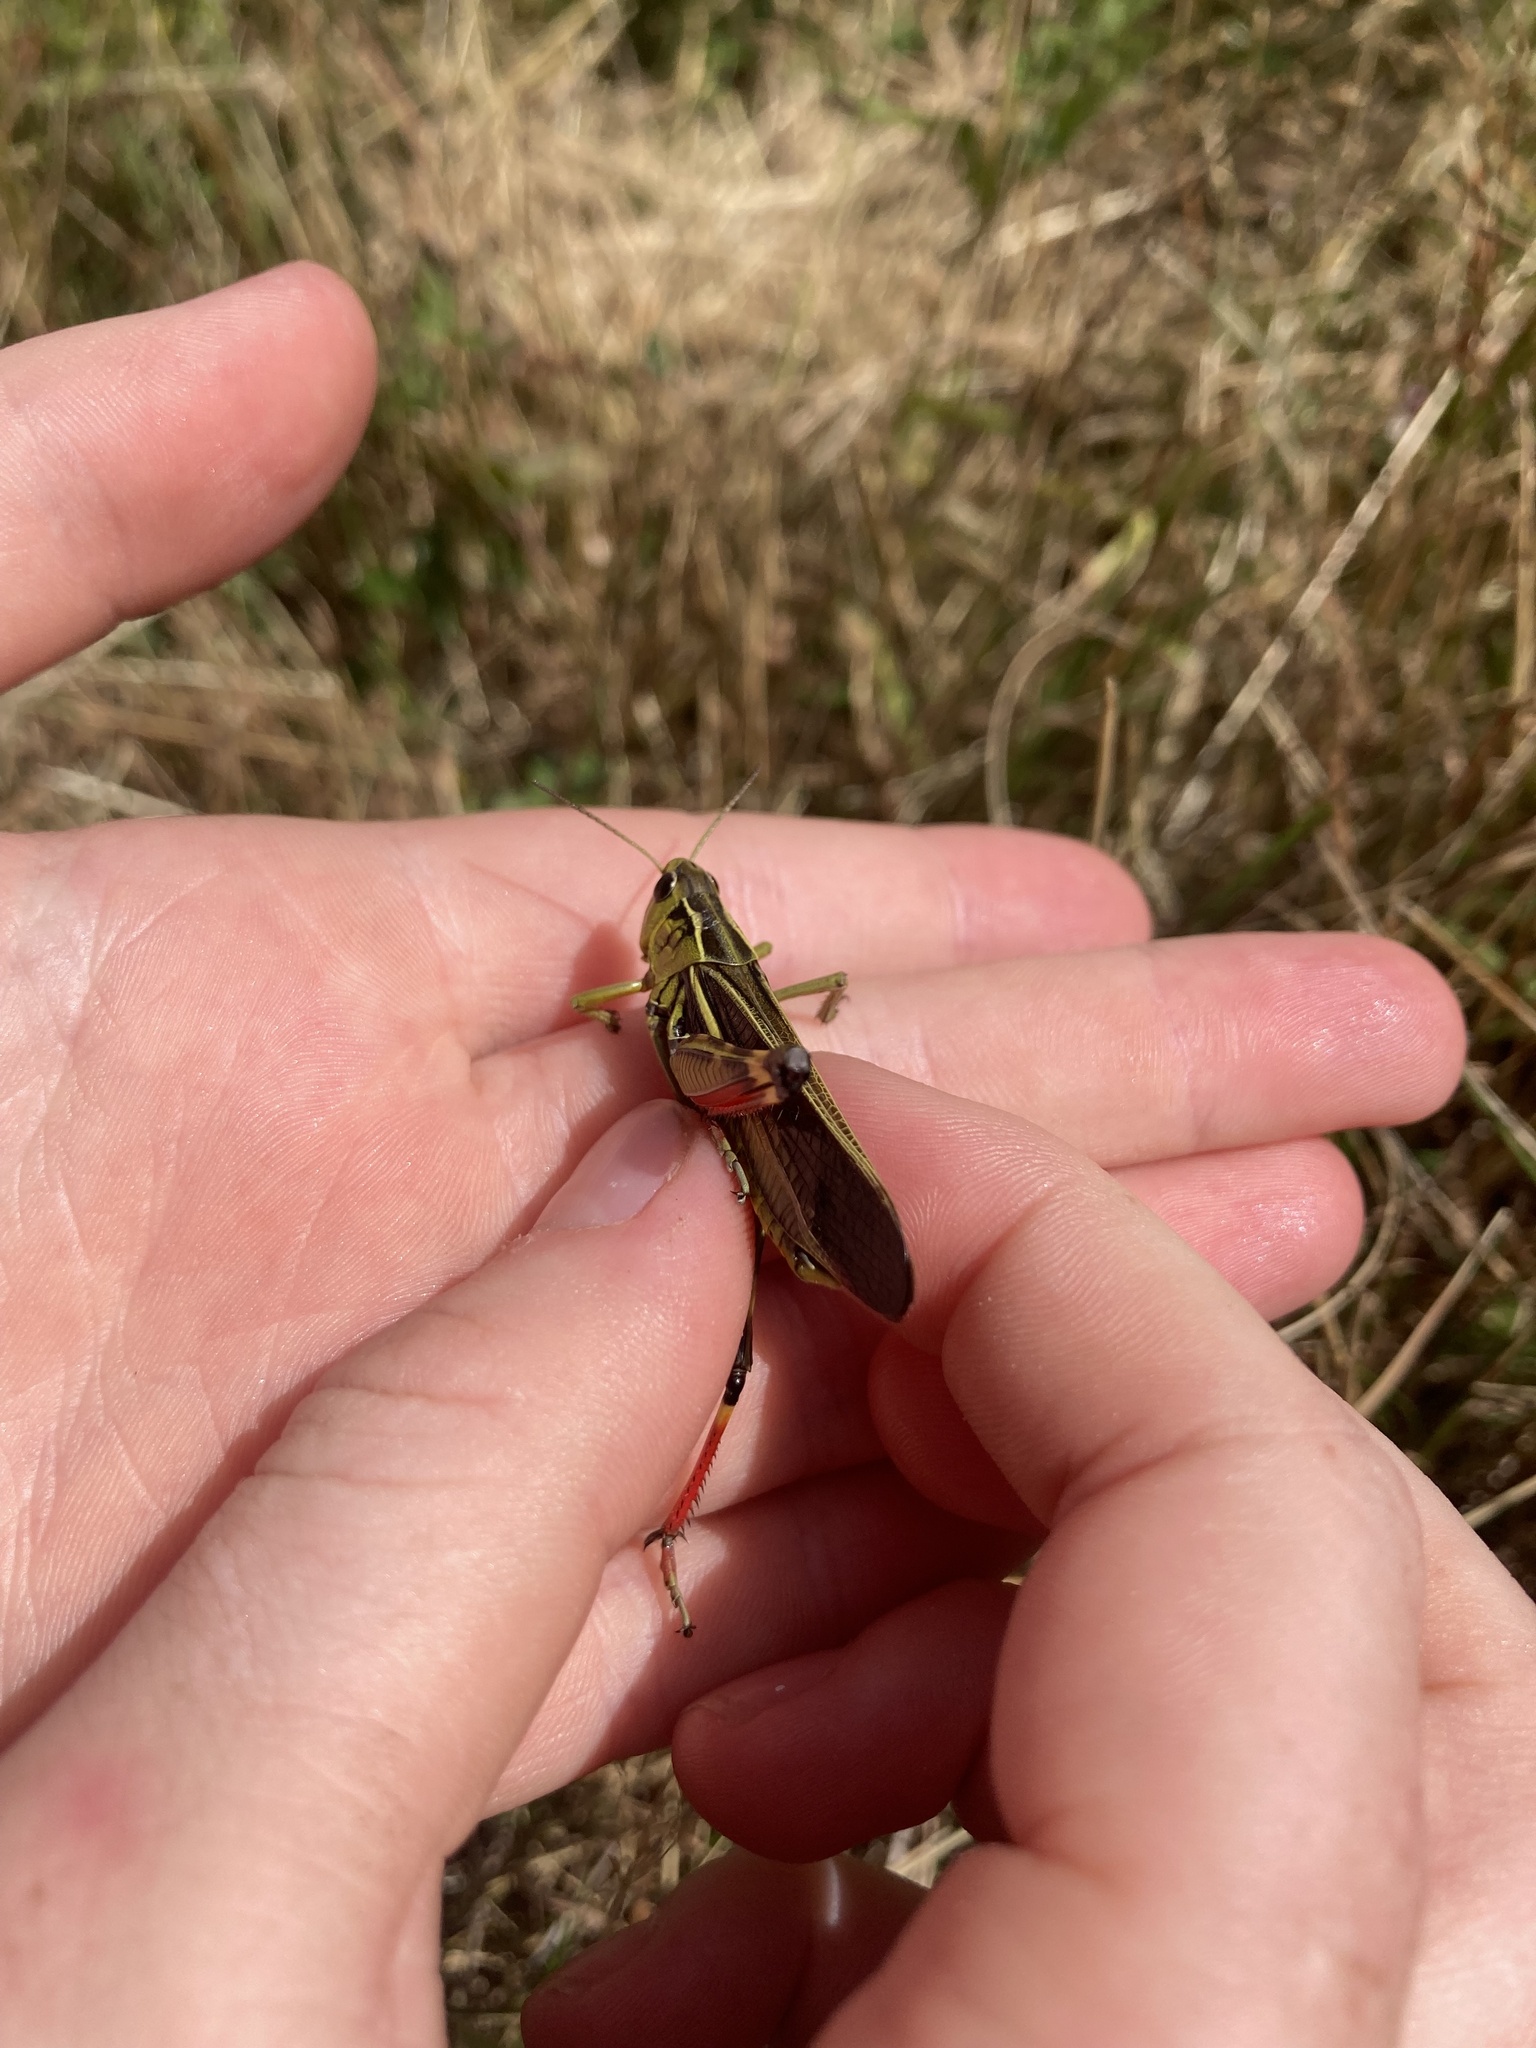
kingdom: Animalia
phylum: Arthropoda
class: Insecta
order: Orthoptera
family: Acrididae
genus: Arcyptera
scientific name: Arcyptera fusca
